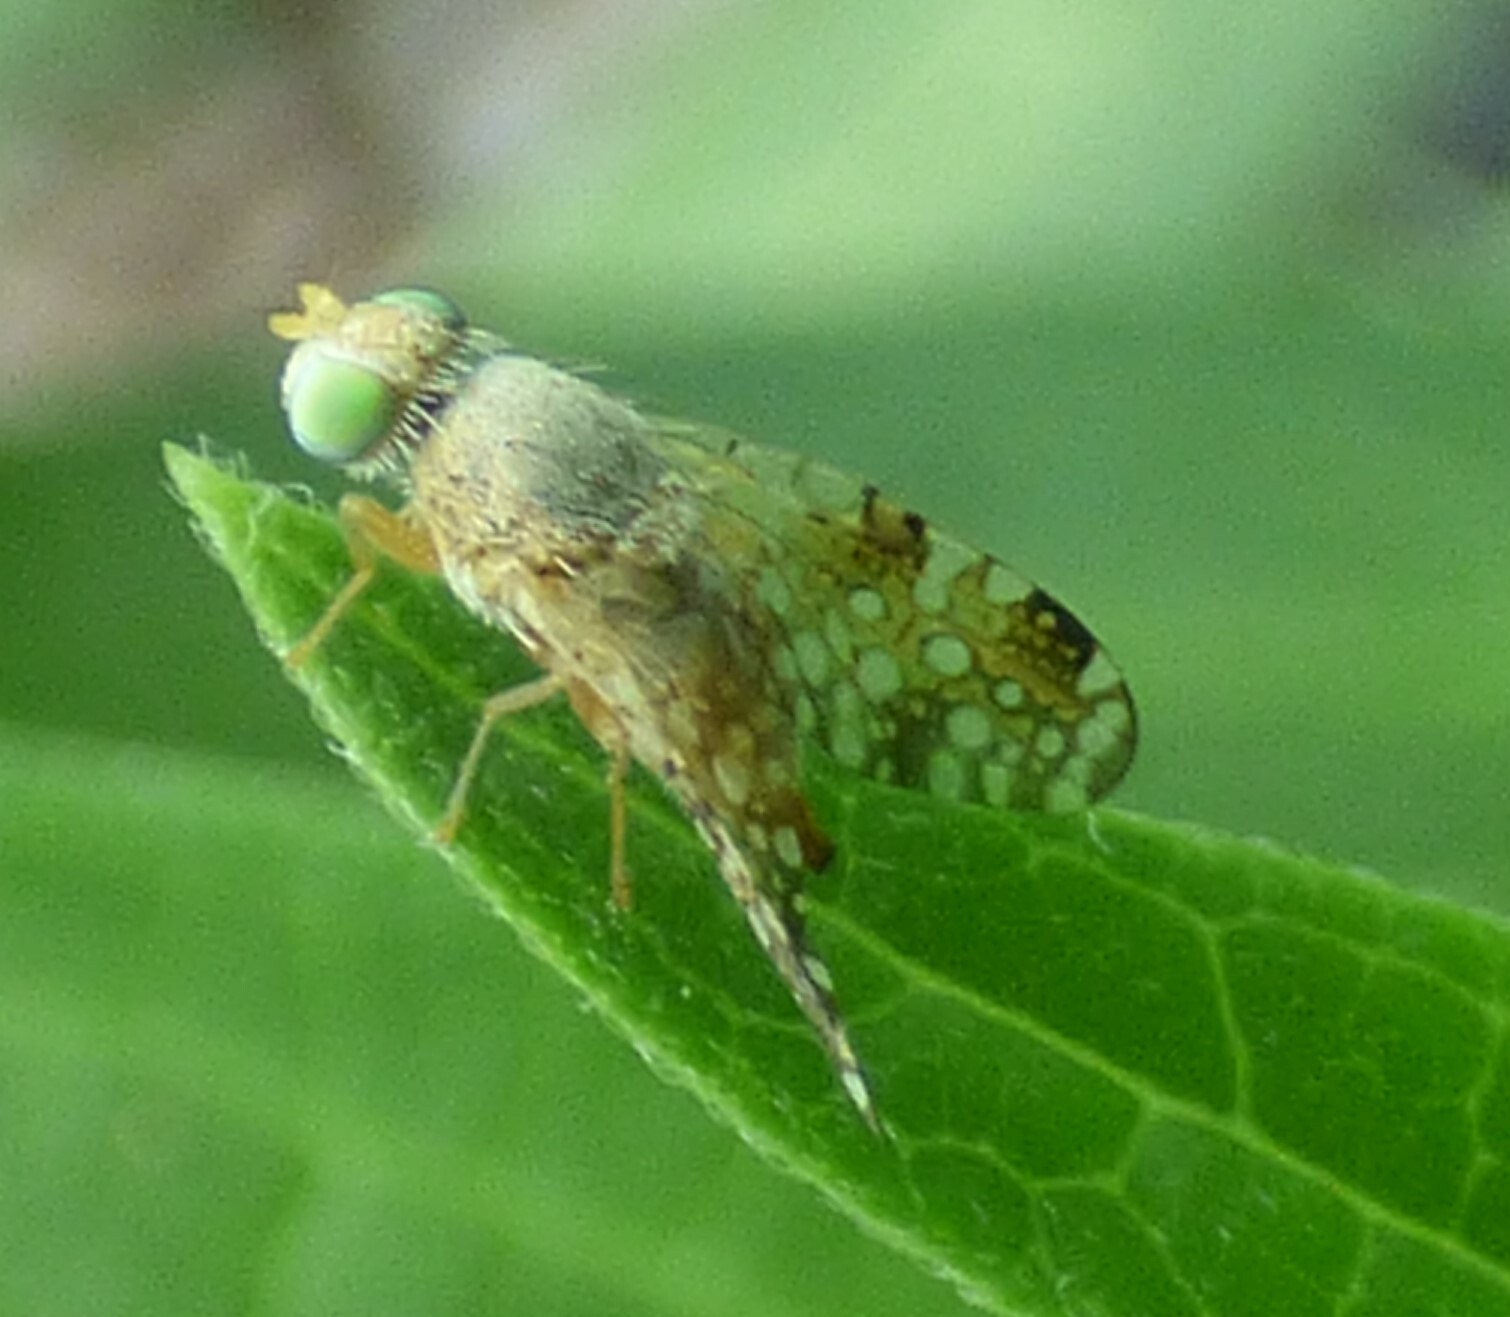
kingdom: Animalia
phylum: Arthropoda
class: Insecta
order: Diptera
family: Tephritidae
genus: Acinia
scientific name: Acinia picturata
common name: Sourbush seed fly
